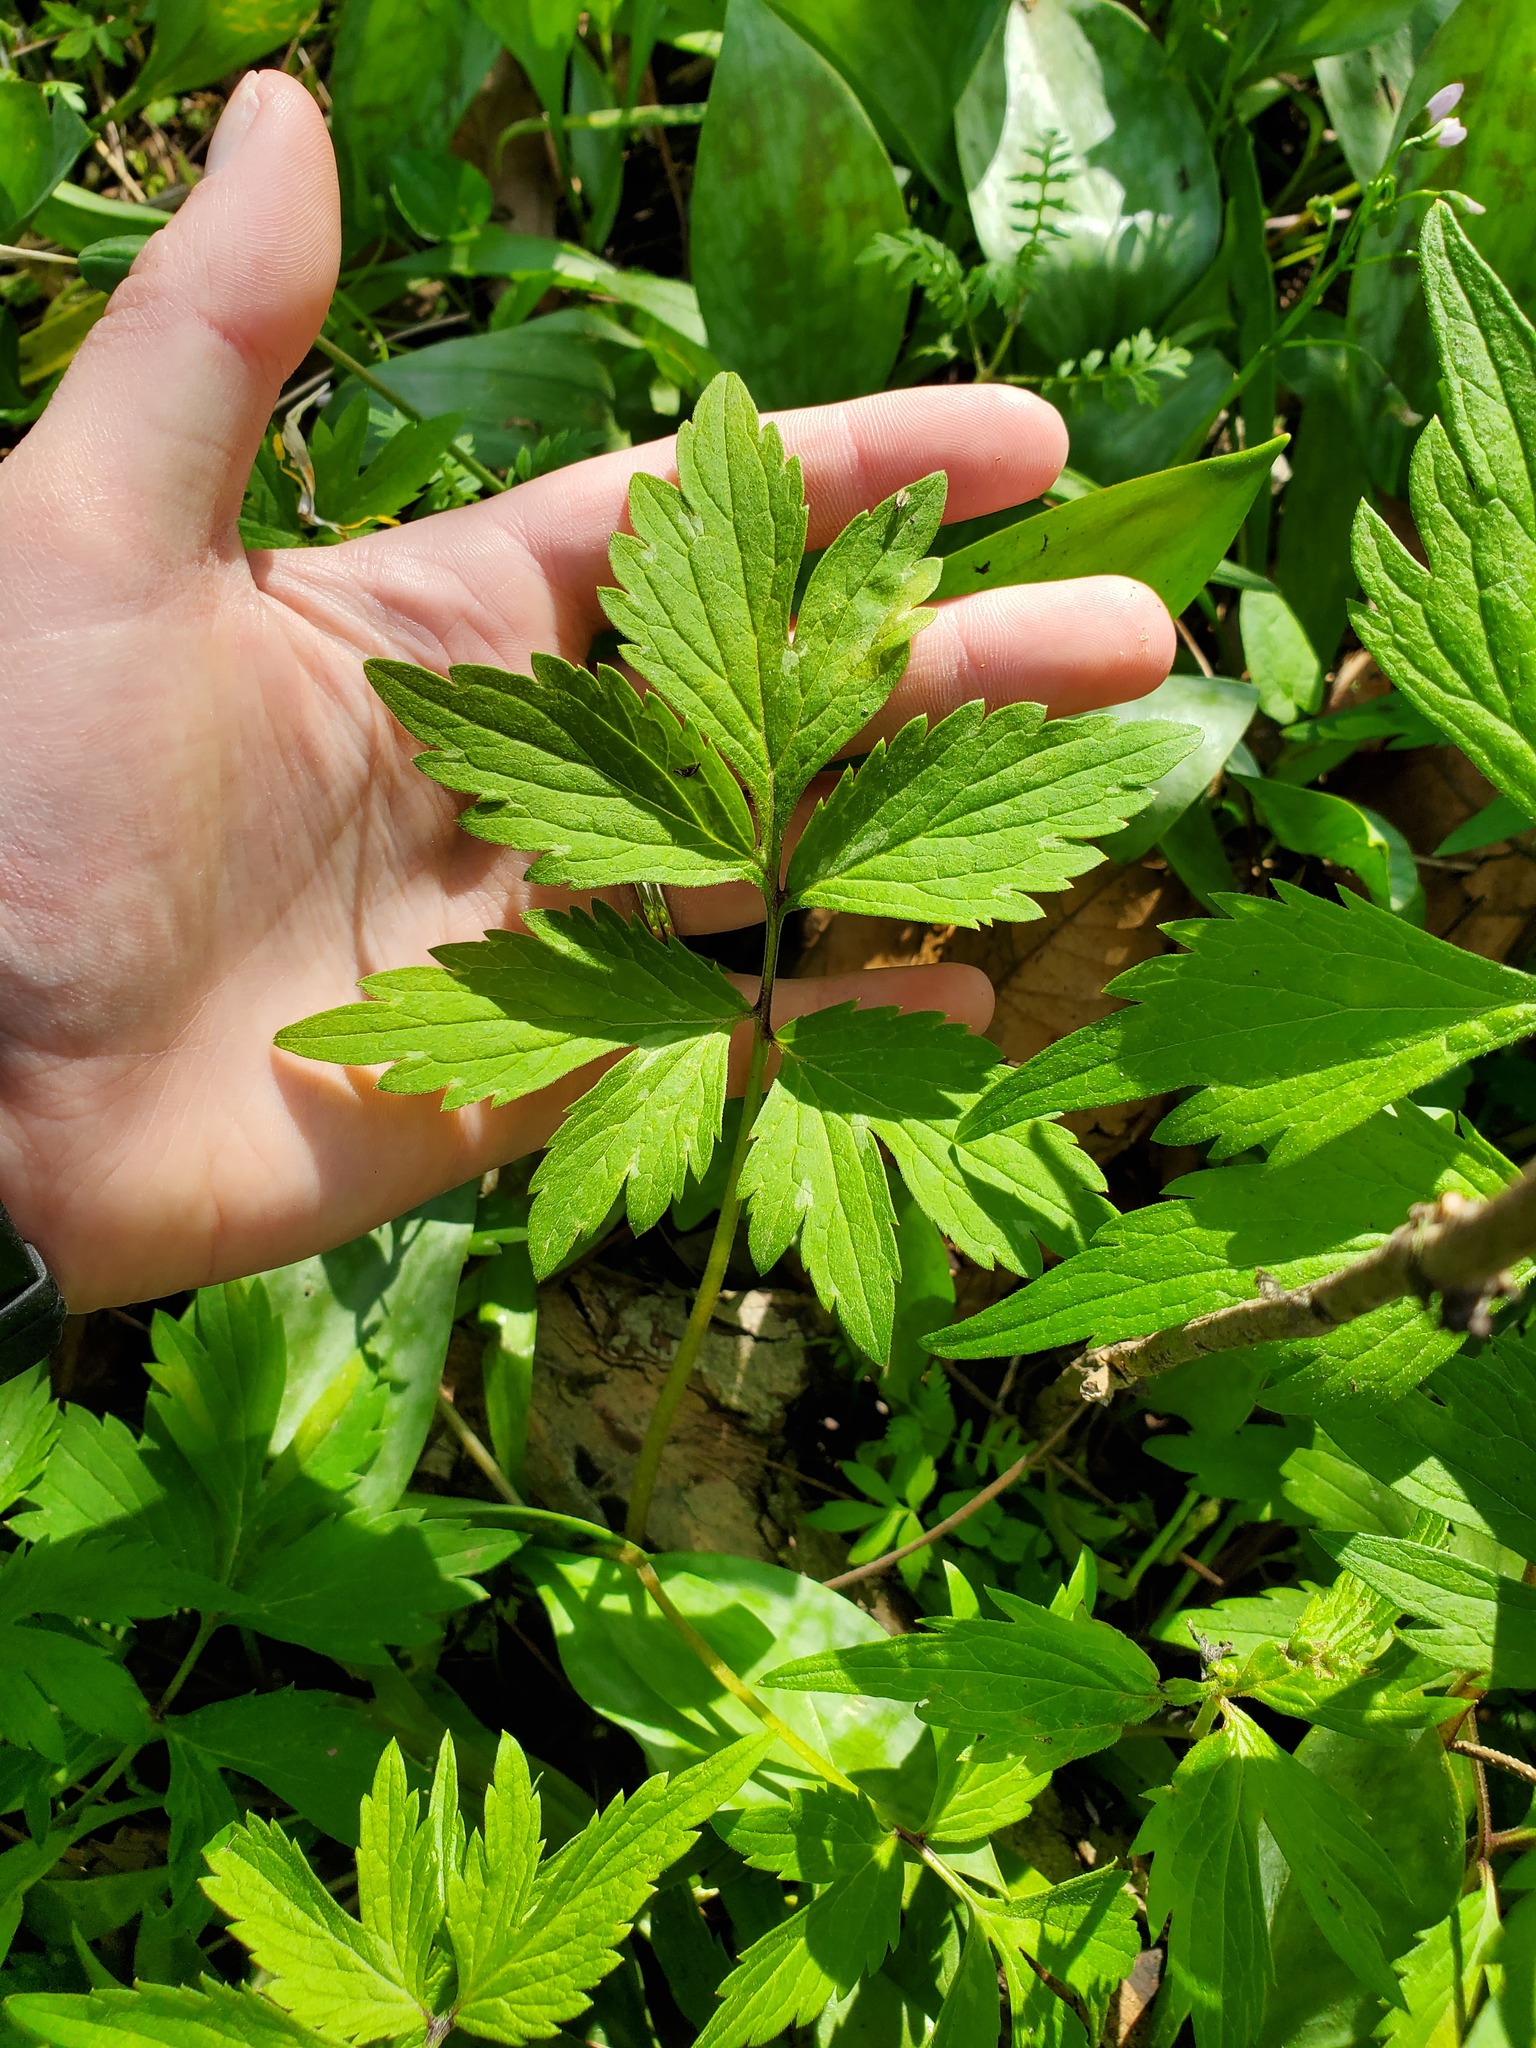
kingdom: Plantae
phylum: Tracheophyta
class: Magnoliopsida
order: Boraginales
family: Hydrophyllaceae
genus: Hydrophyllum
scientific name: Hydrophyllum virginianum
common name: Virginia waterleaf
